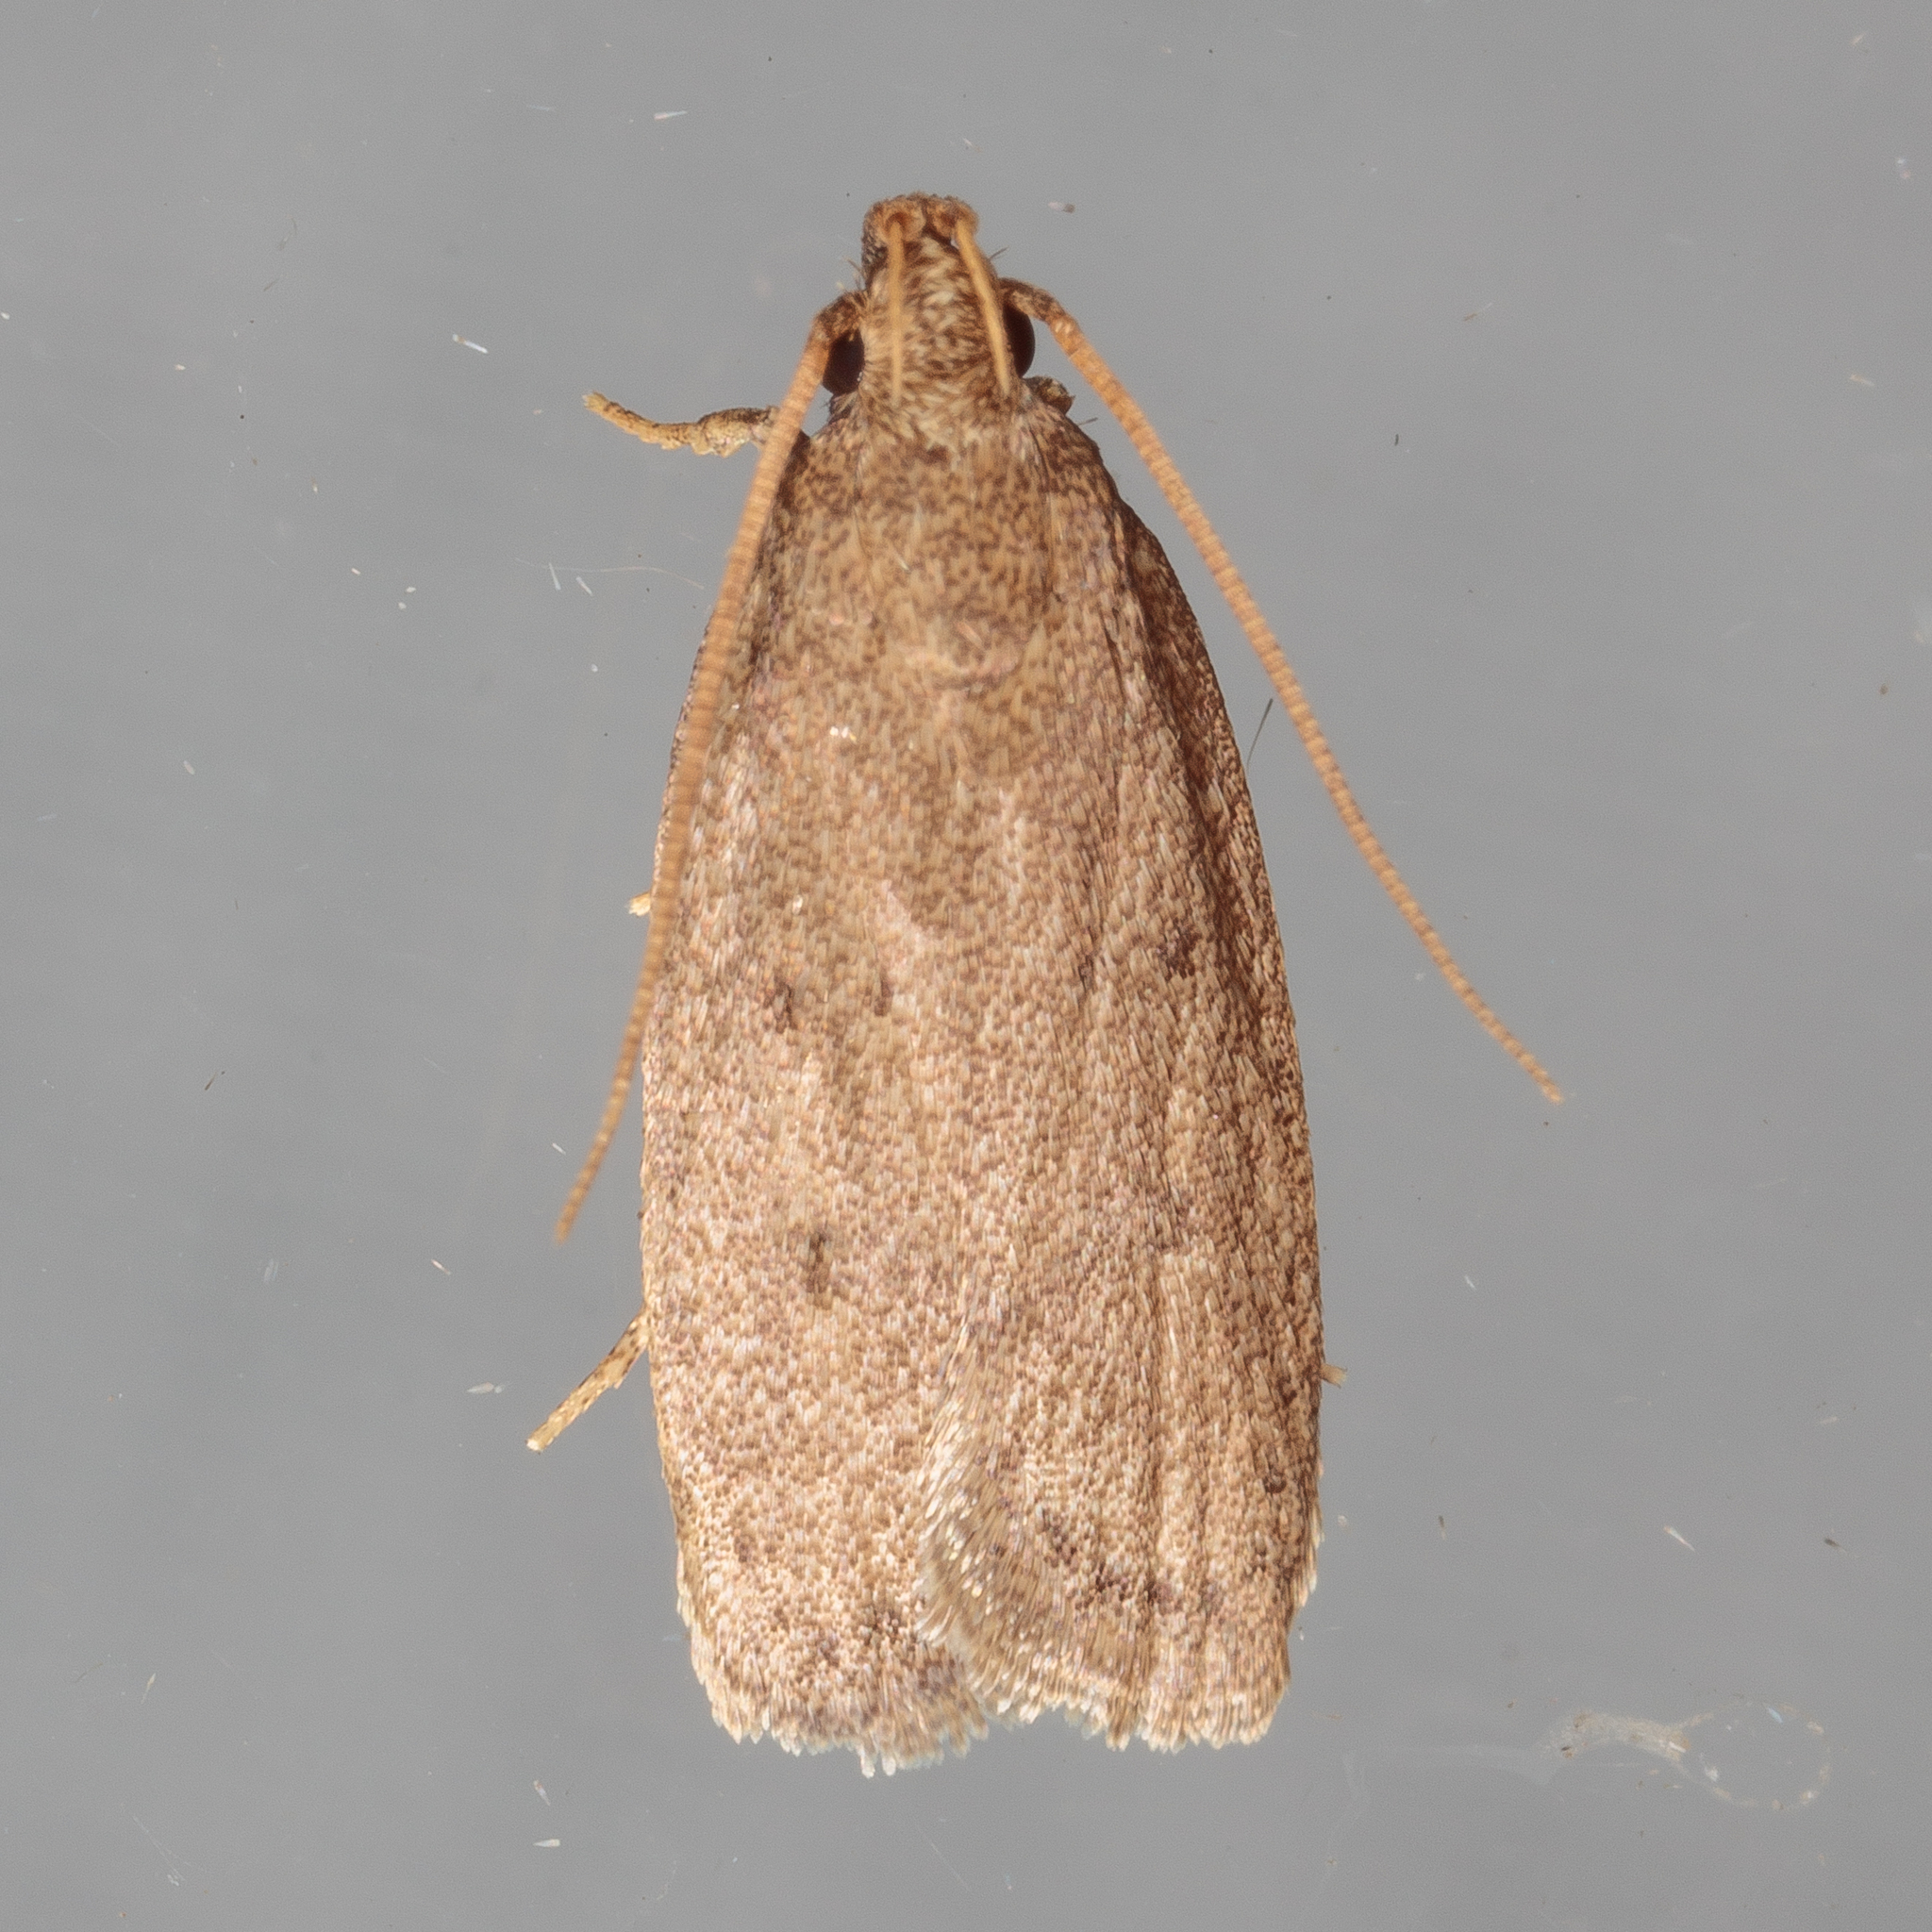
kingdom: Animalia
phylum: Arthropoda
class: Insecta
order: Lepidoptera
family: Autostichidae
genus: Autosticha
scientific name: Autosticha kyotensis
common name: Kyoto moth
